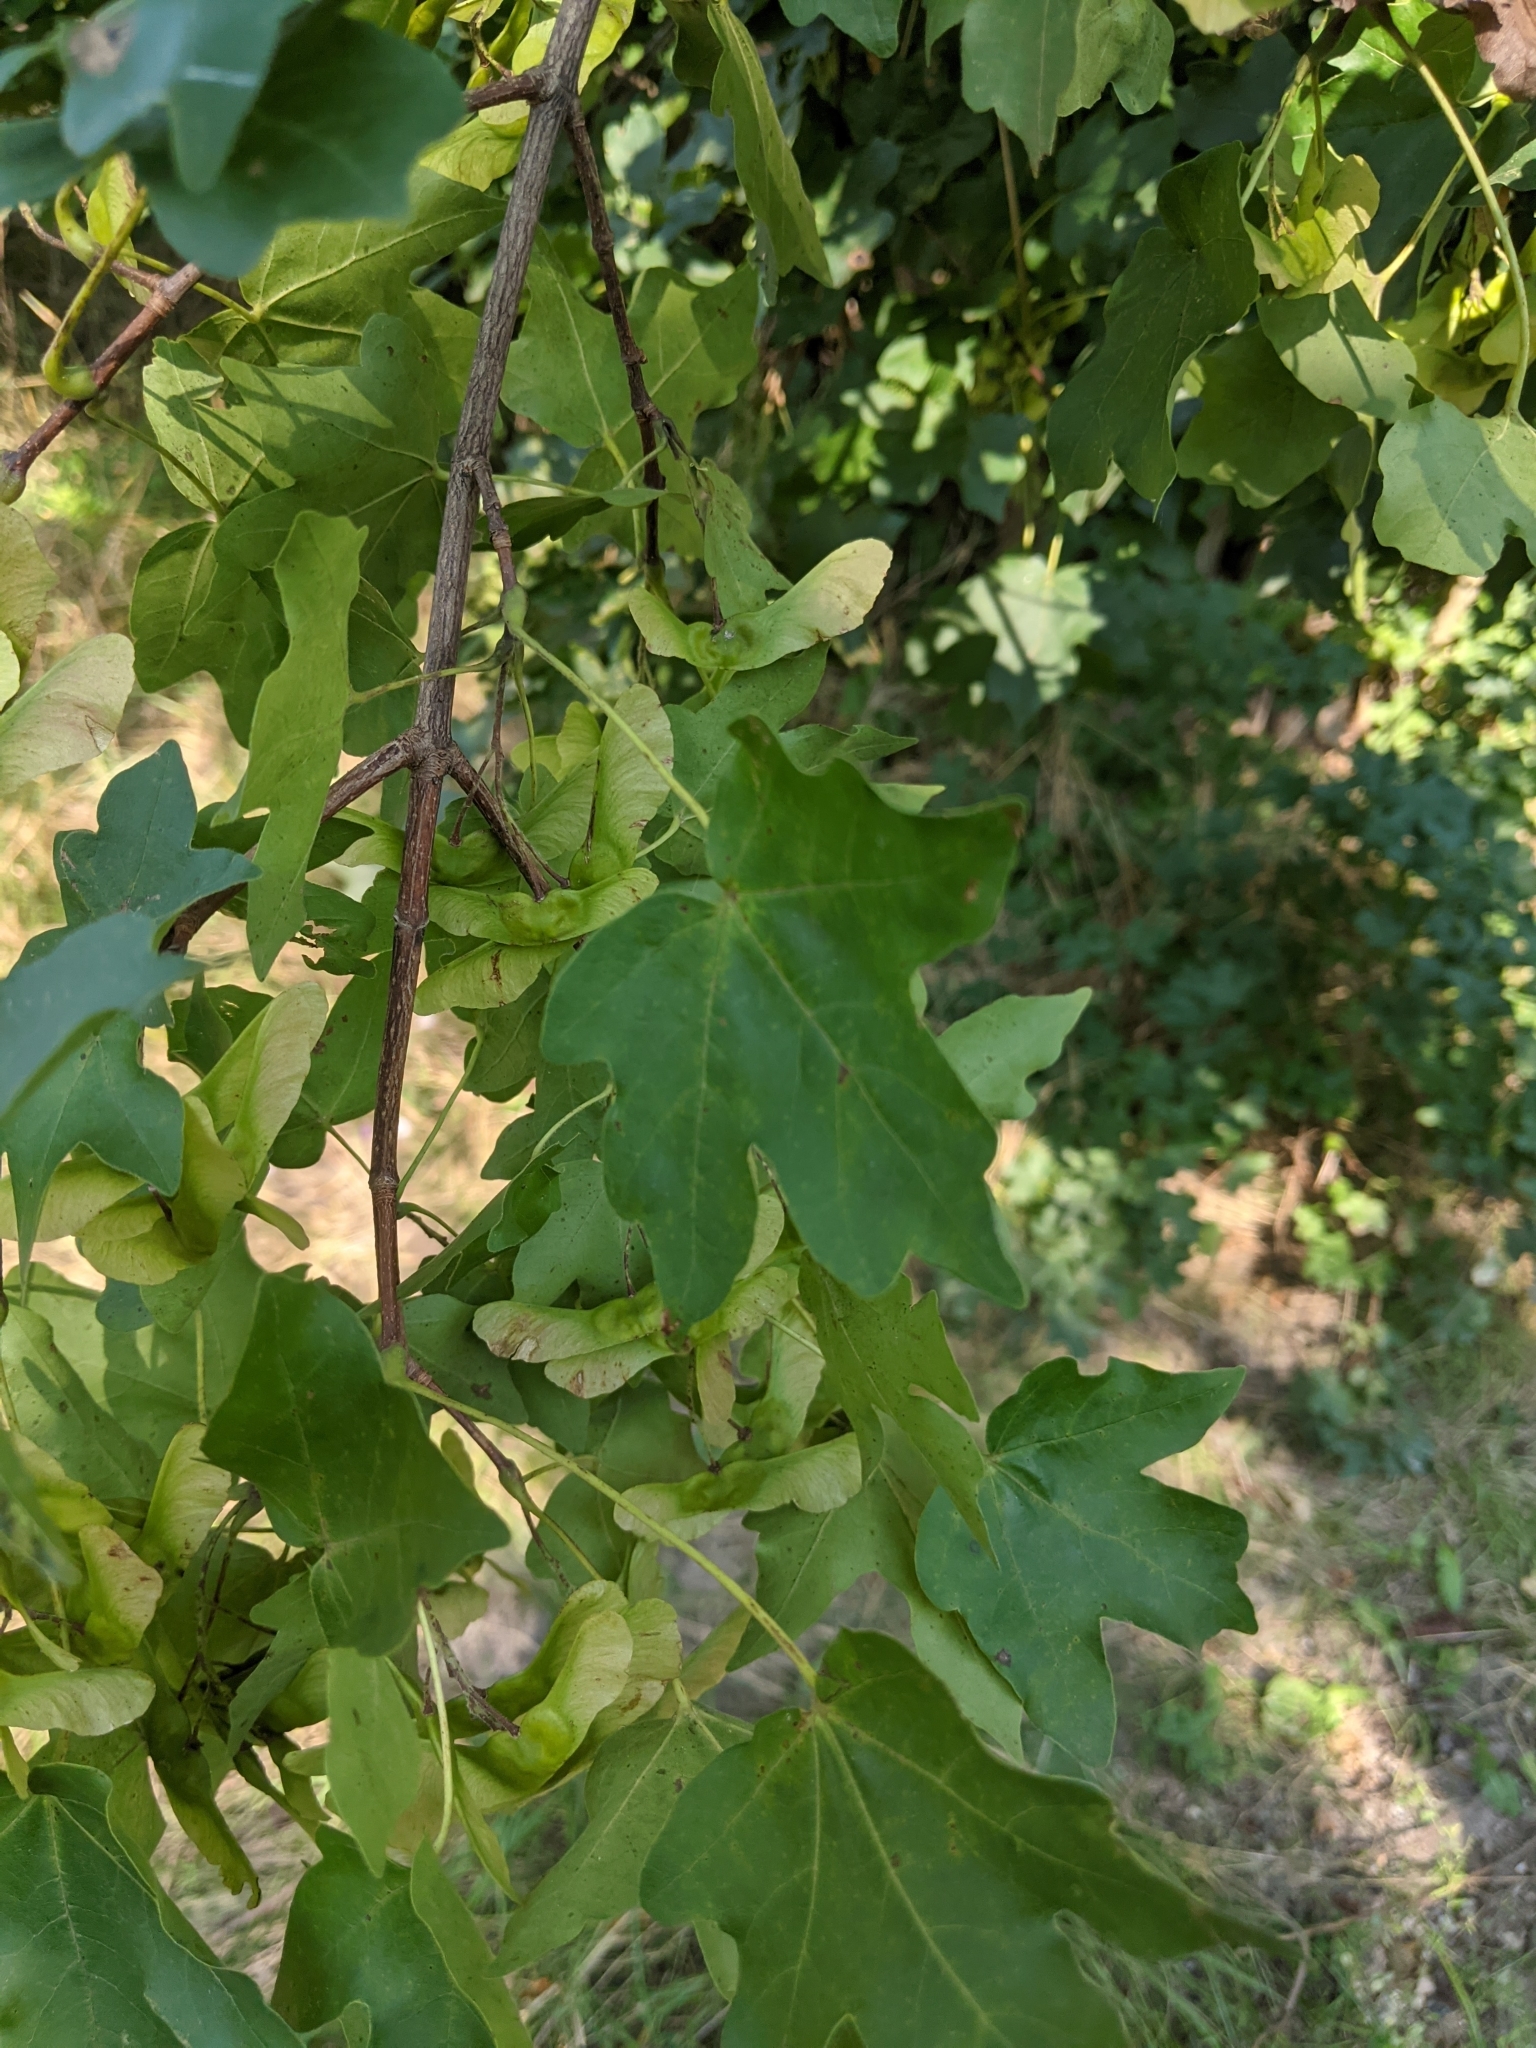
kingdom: Plantae
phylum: Tracheophyta
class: Magnoliopsida
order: Sapindales
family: Sapindaceae
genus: Acer
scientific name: Acer campestre
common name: Field maple
